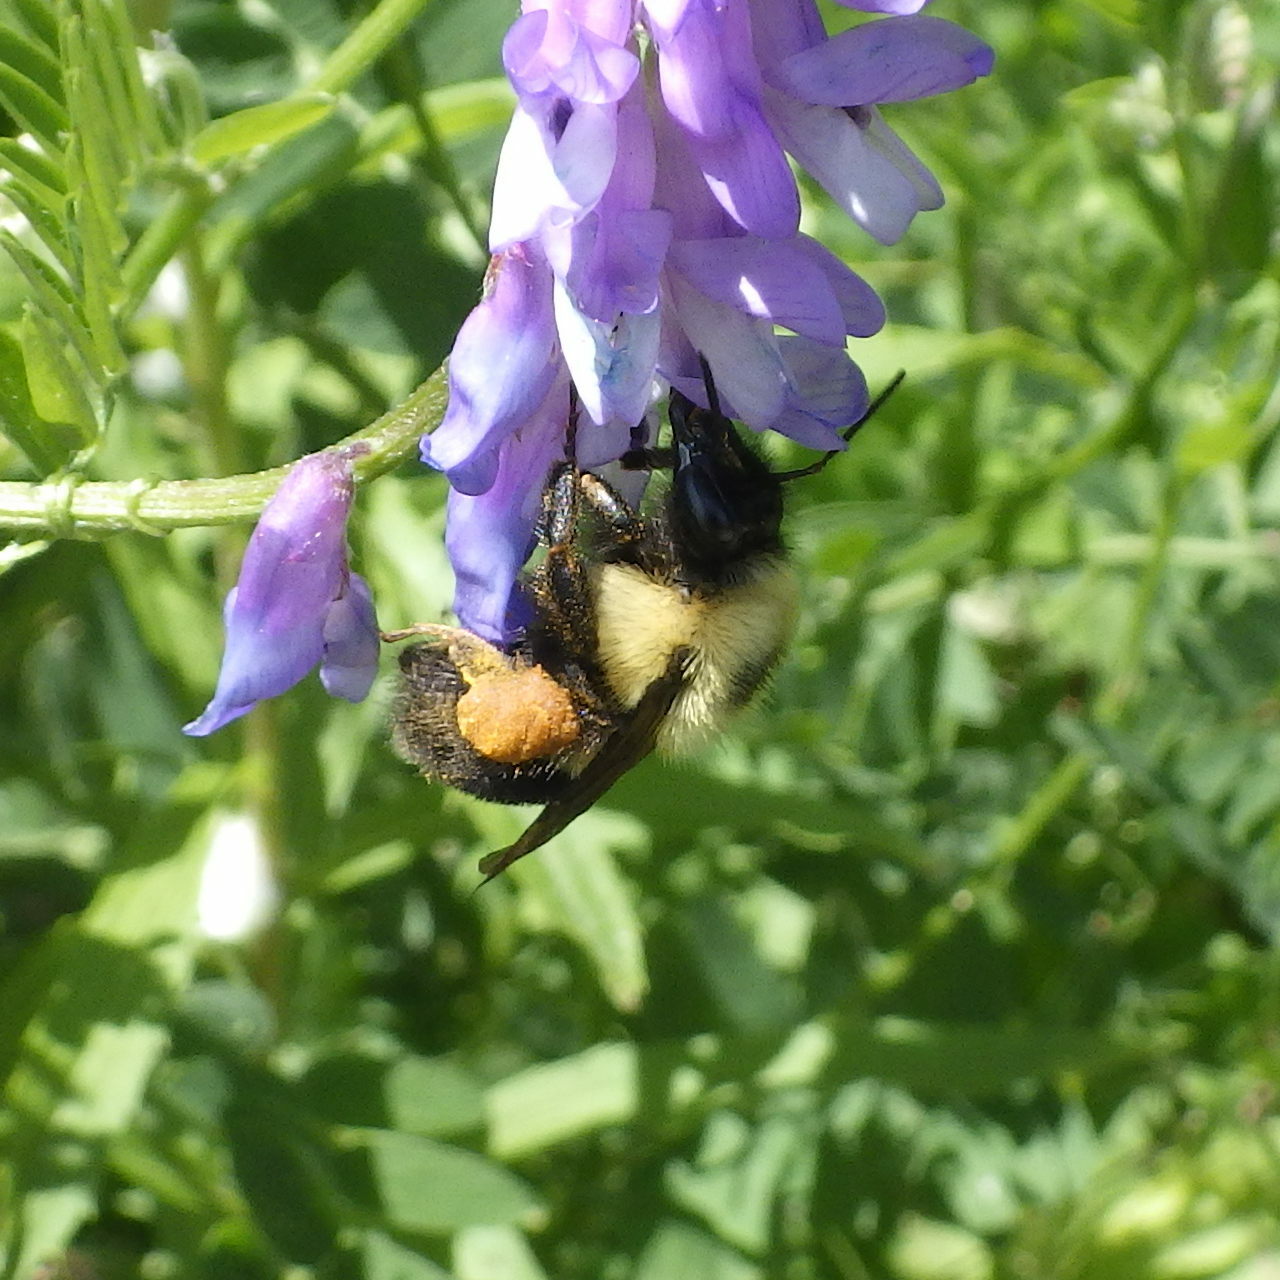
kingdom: Animalia
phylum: Arthropoda
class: Insecta
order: Hymenoptera
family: Apidae
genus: Bombus
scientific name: Bombus bimaculatus
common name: Two-spotted bumble bee
